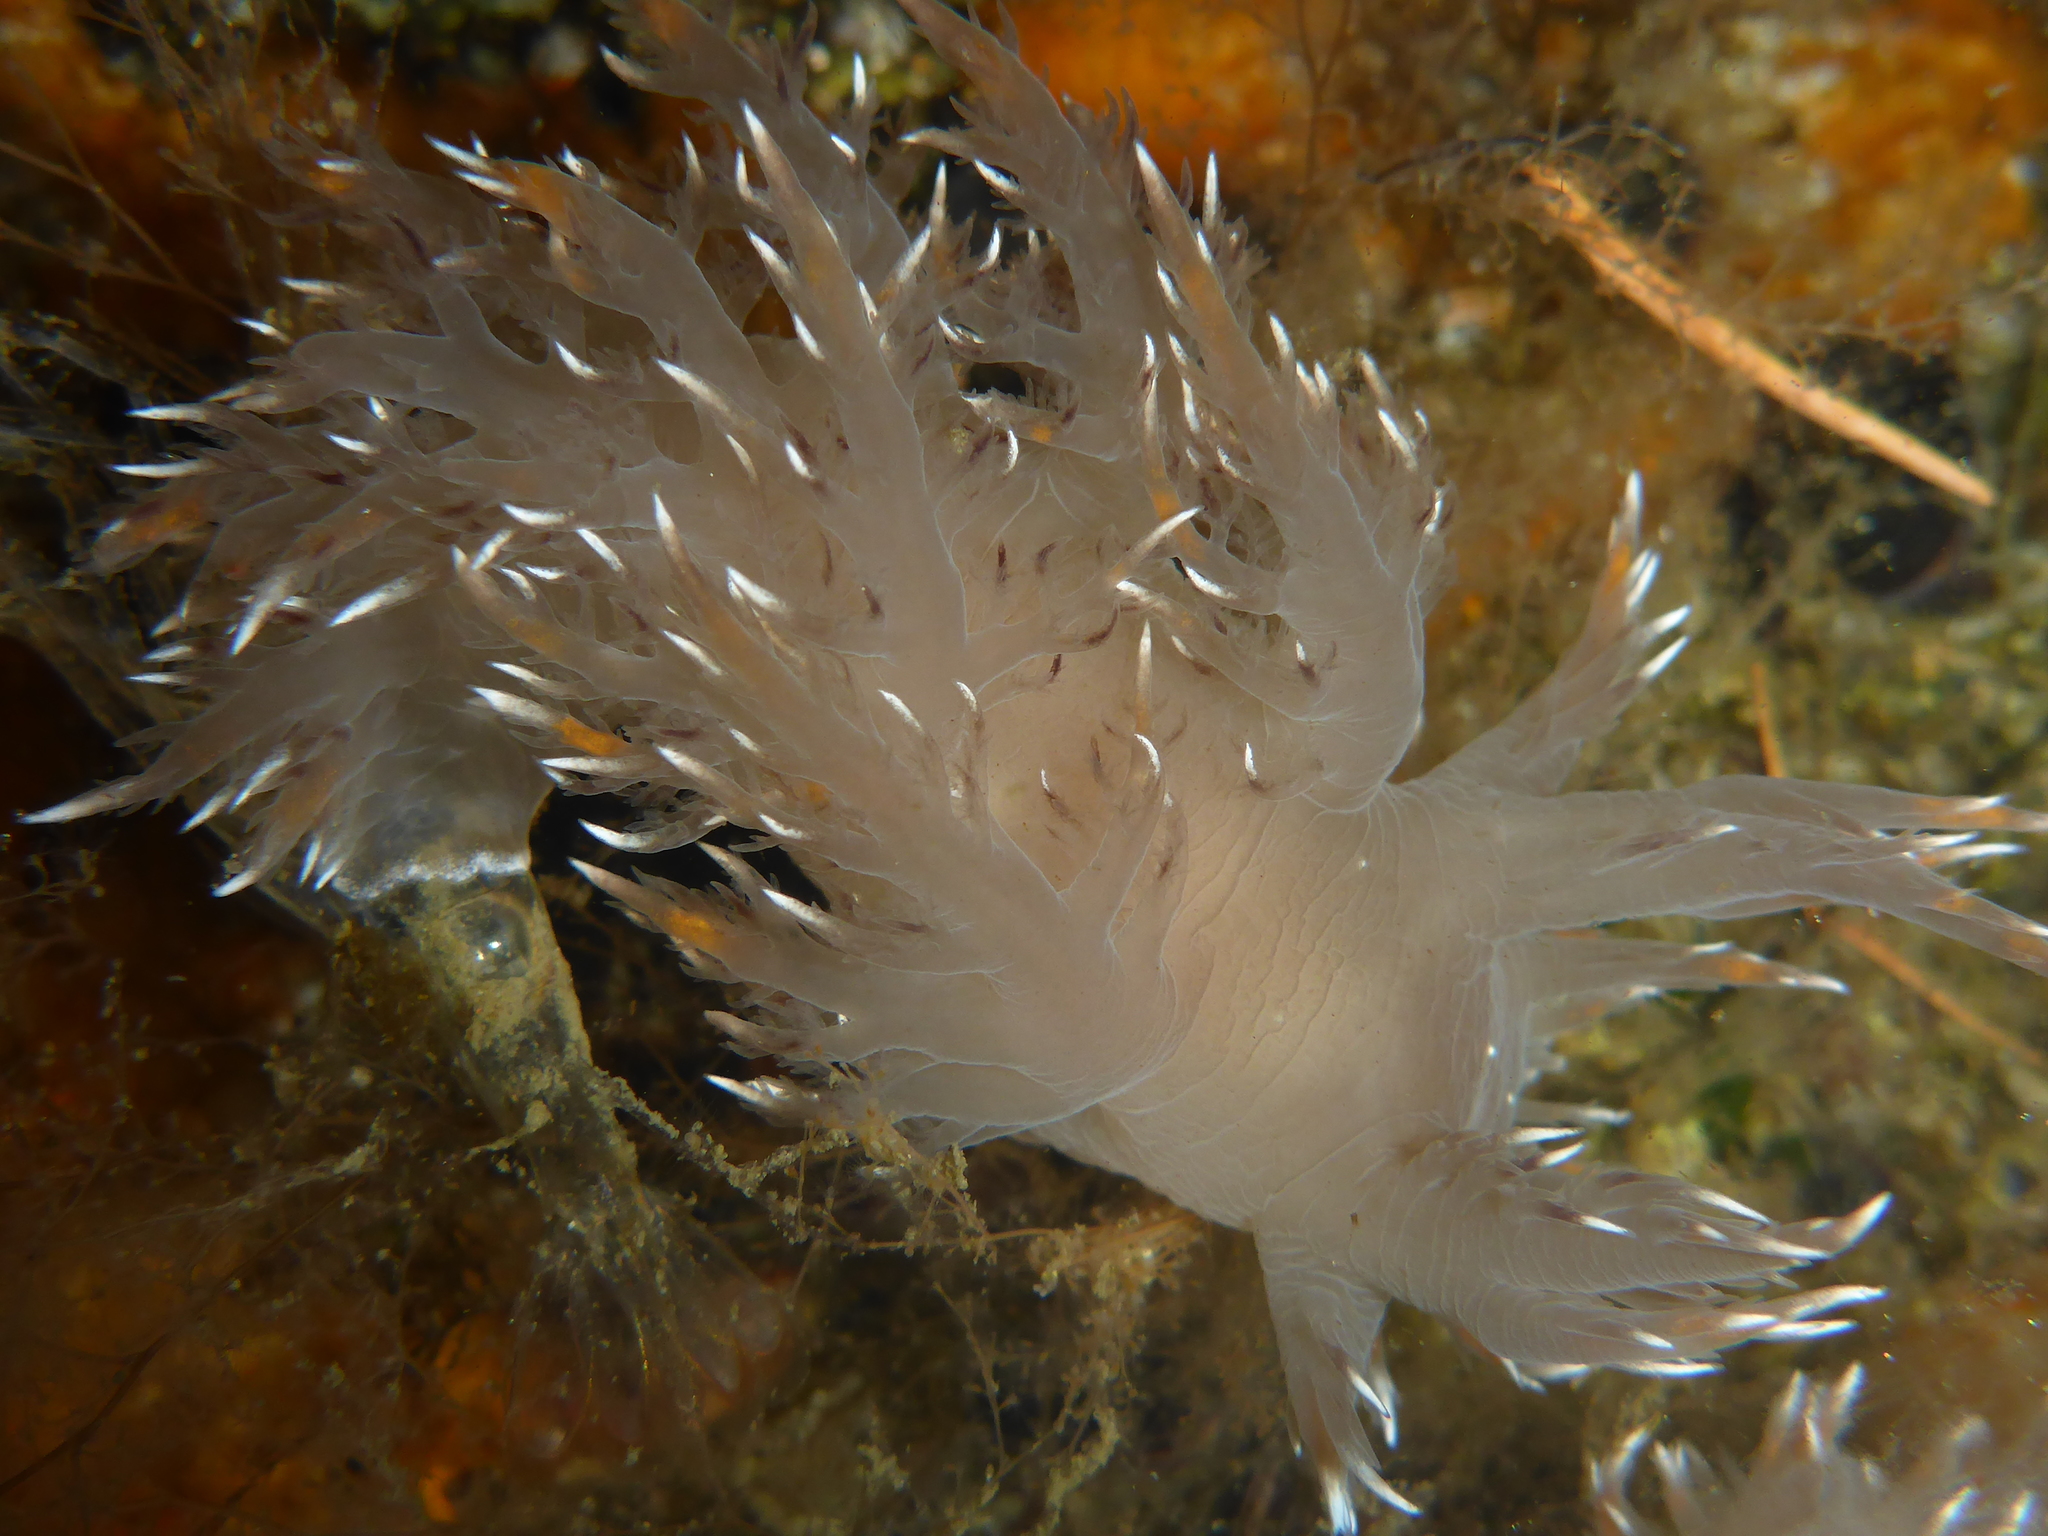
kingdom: Animalia
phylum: Mollusca
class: Gastropoda
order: Nudibranchia
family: Dendronotidae
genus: Dendronotus
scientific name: Dendronotus iris
